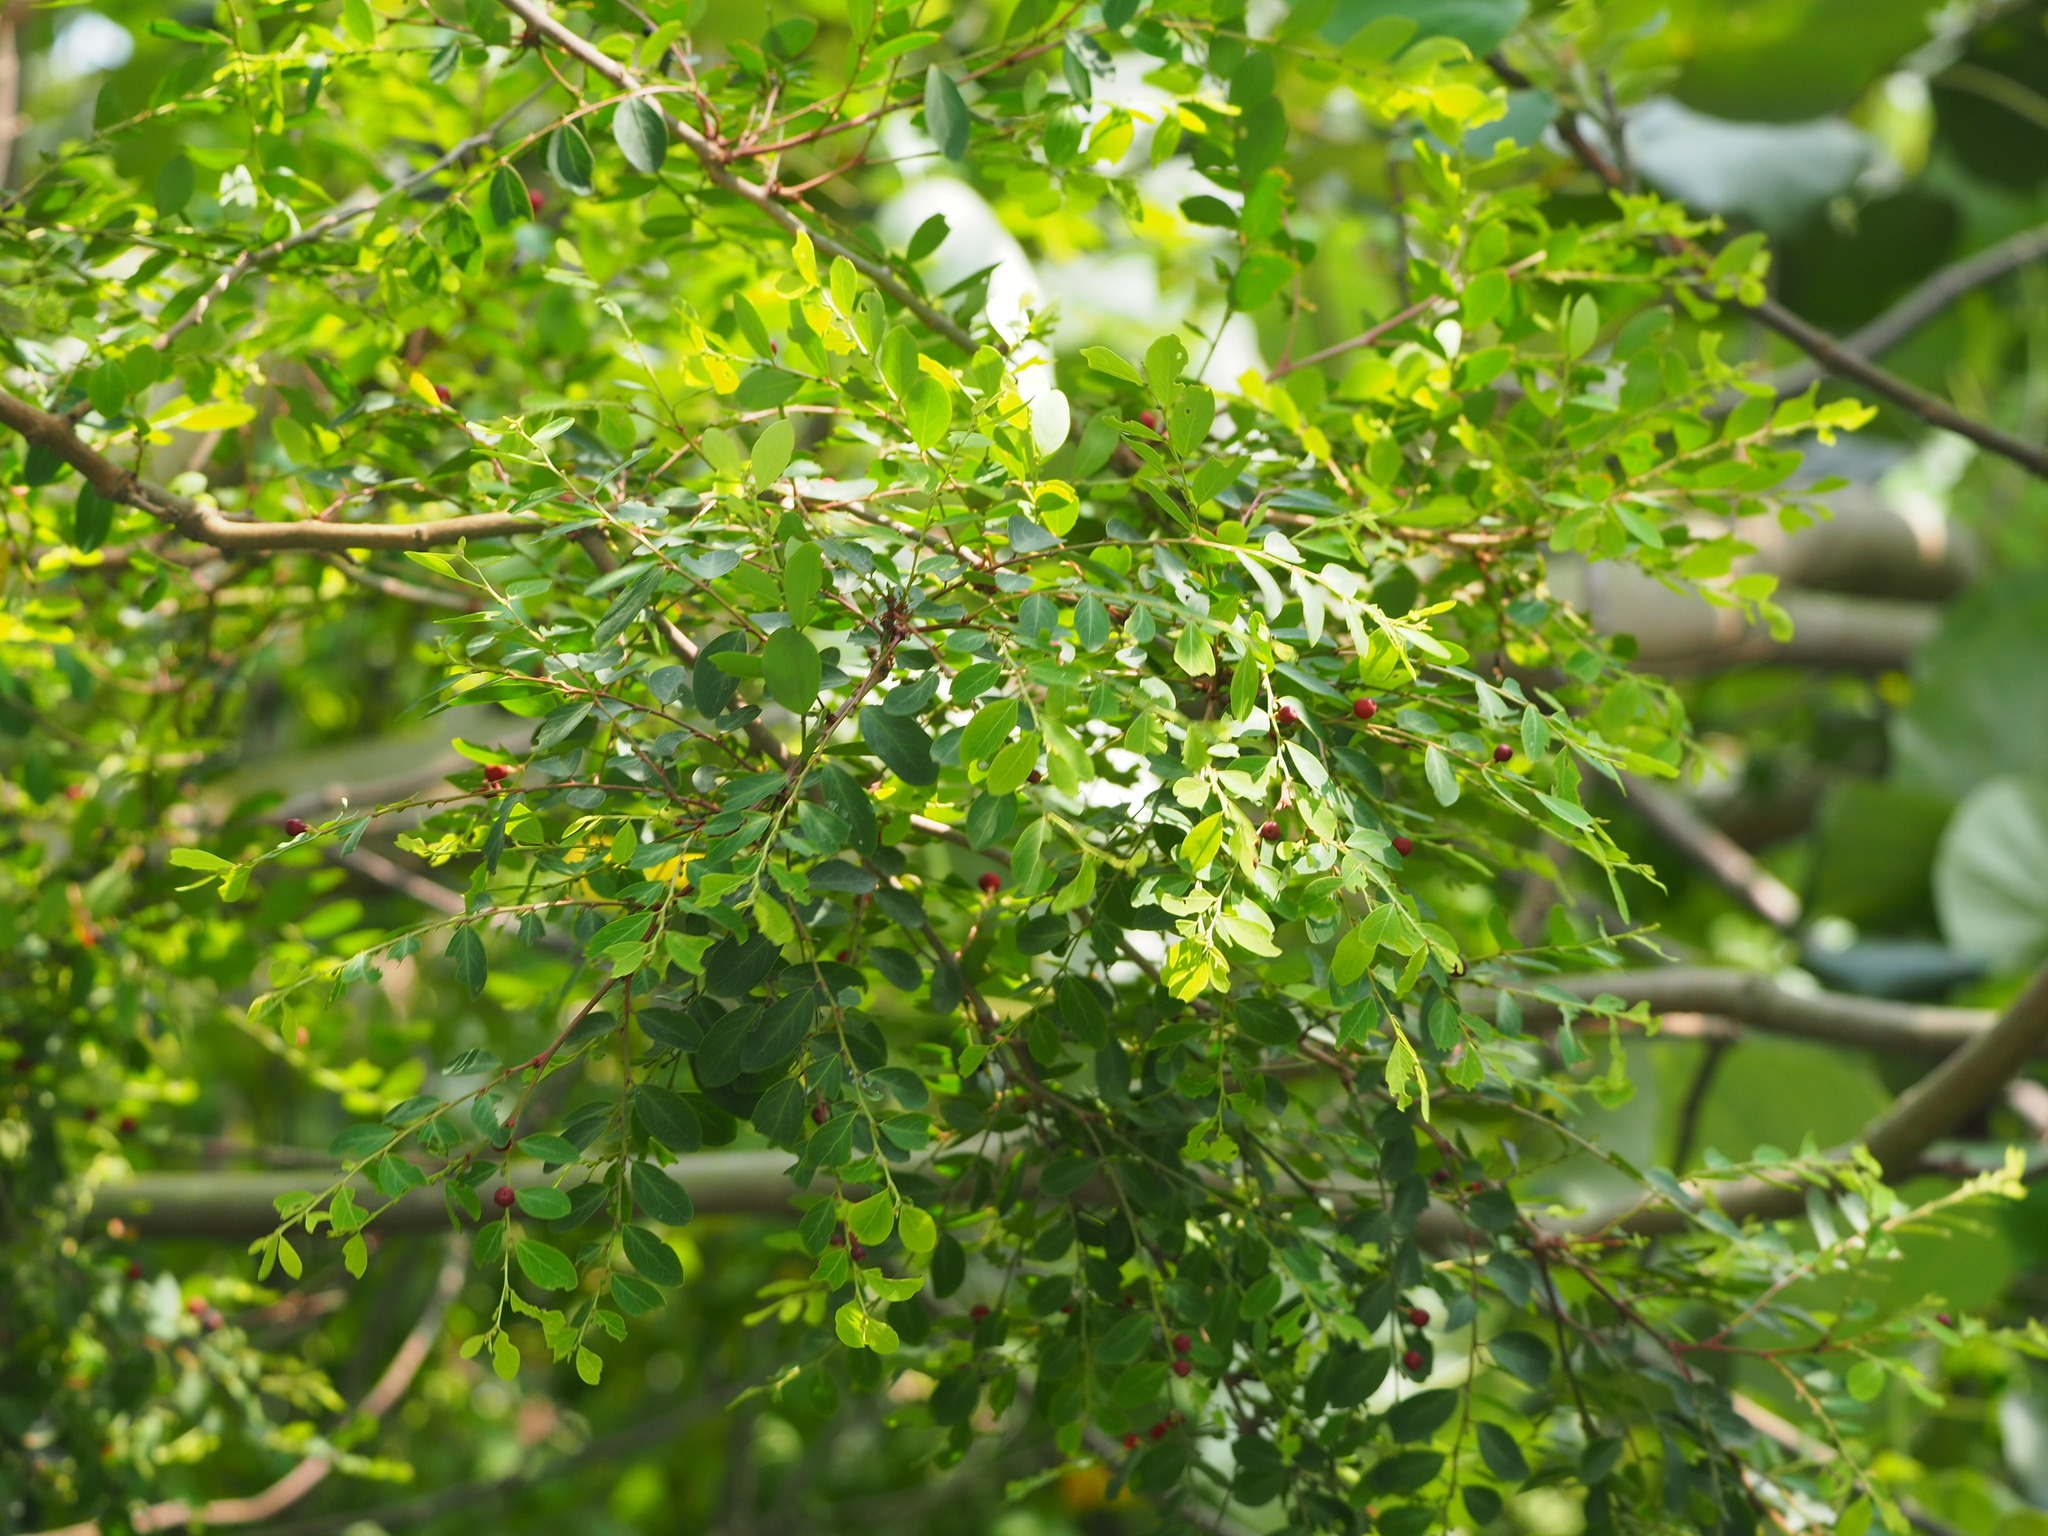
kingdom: Plantae
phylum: Tracheophyta
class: Magnoliopsida
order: Malpighiales
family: Phyllanthaceae
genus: Breynia
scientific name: Breynia vitis-idaea
